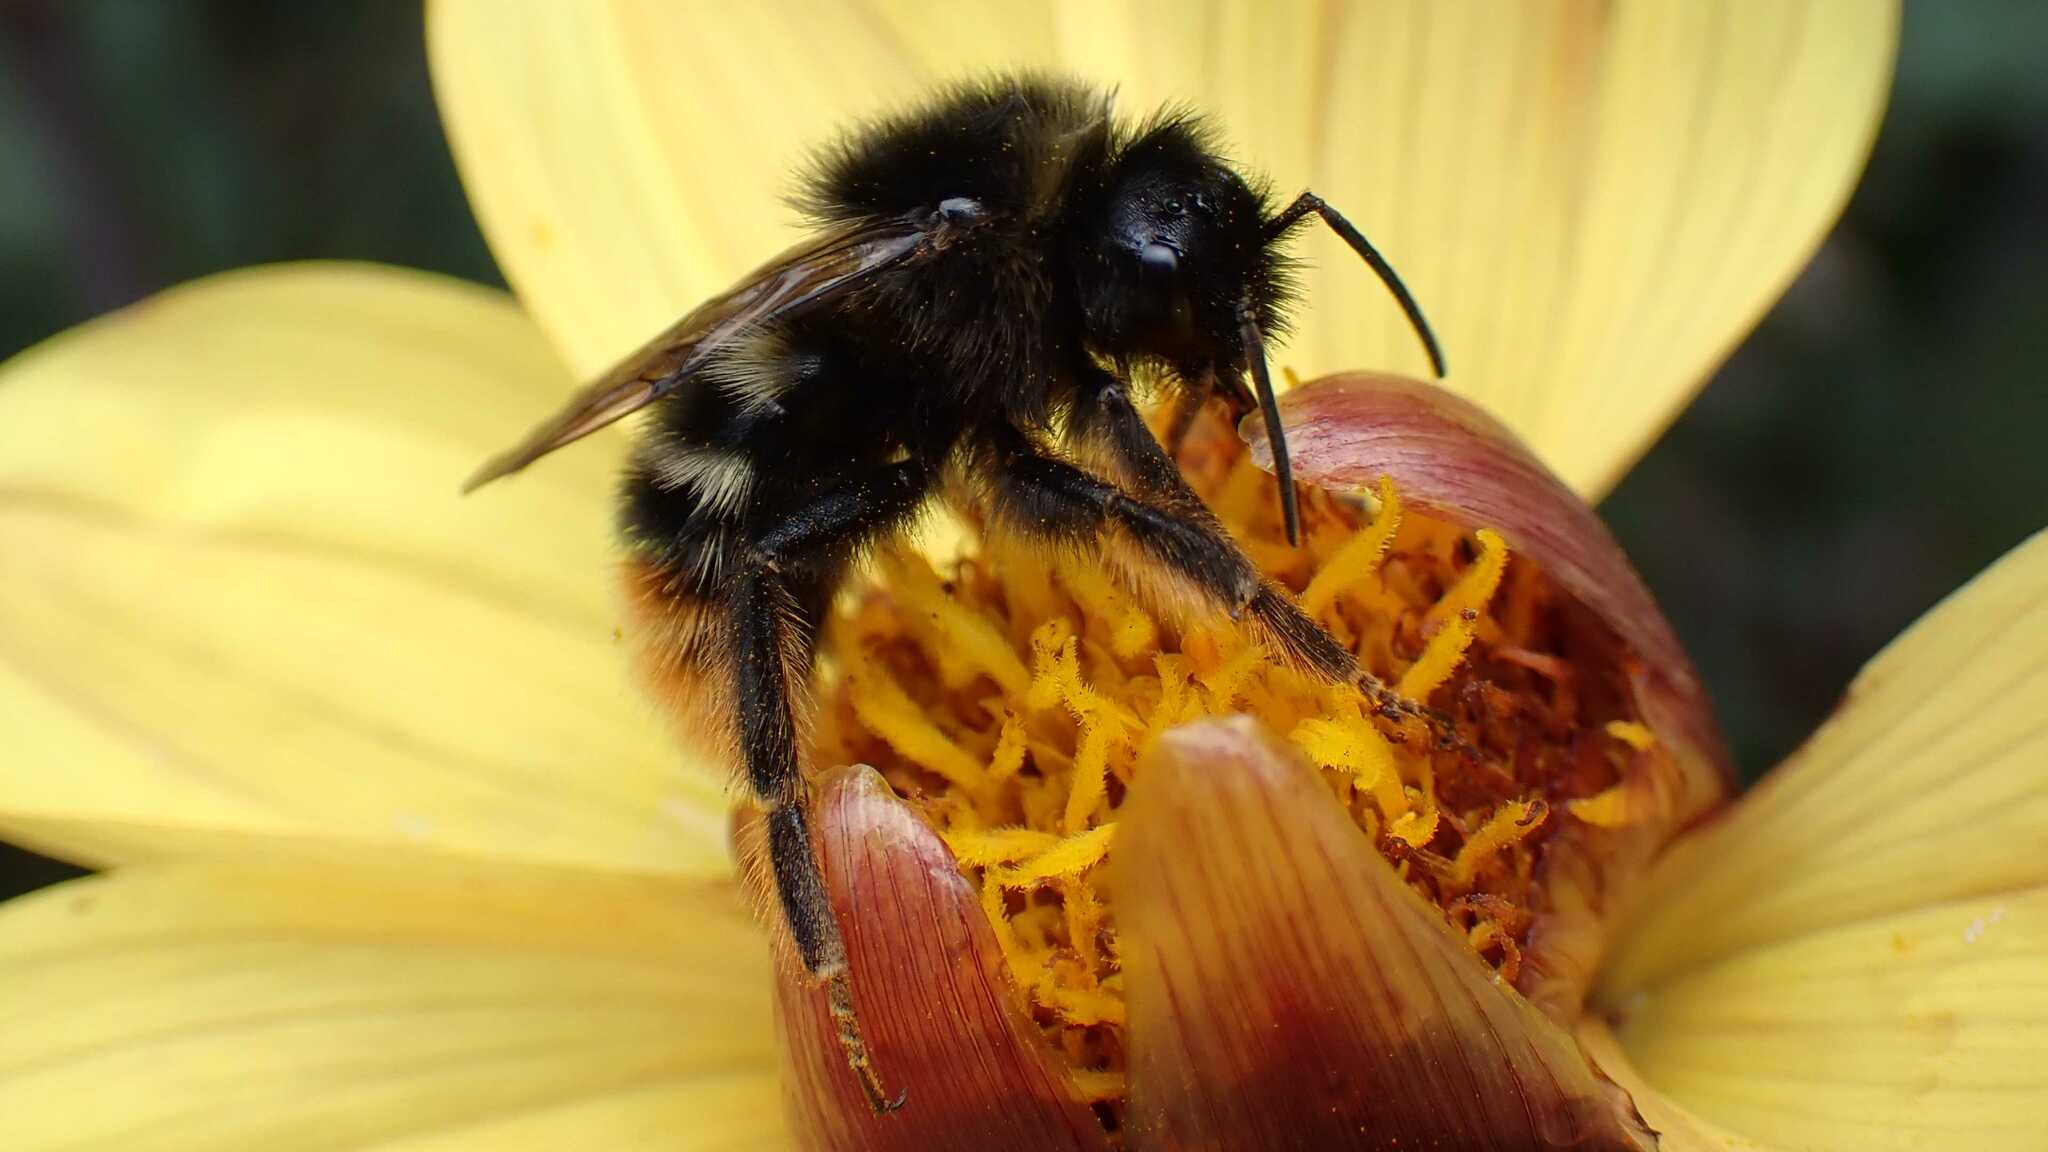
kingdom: Animalia
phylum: Arthropoda
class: Insecta
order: Hymenoptera
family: Apidae
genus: Bombus
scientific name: Bombus rupestris
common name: Hill cuckoo-bee
